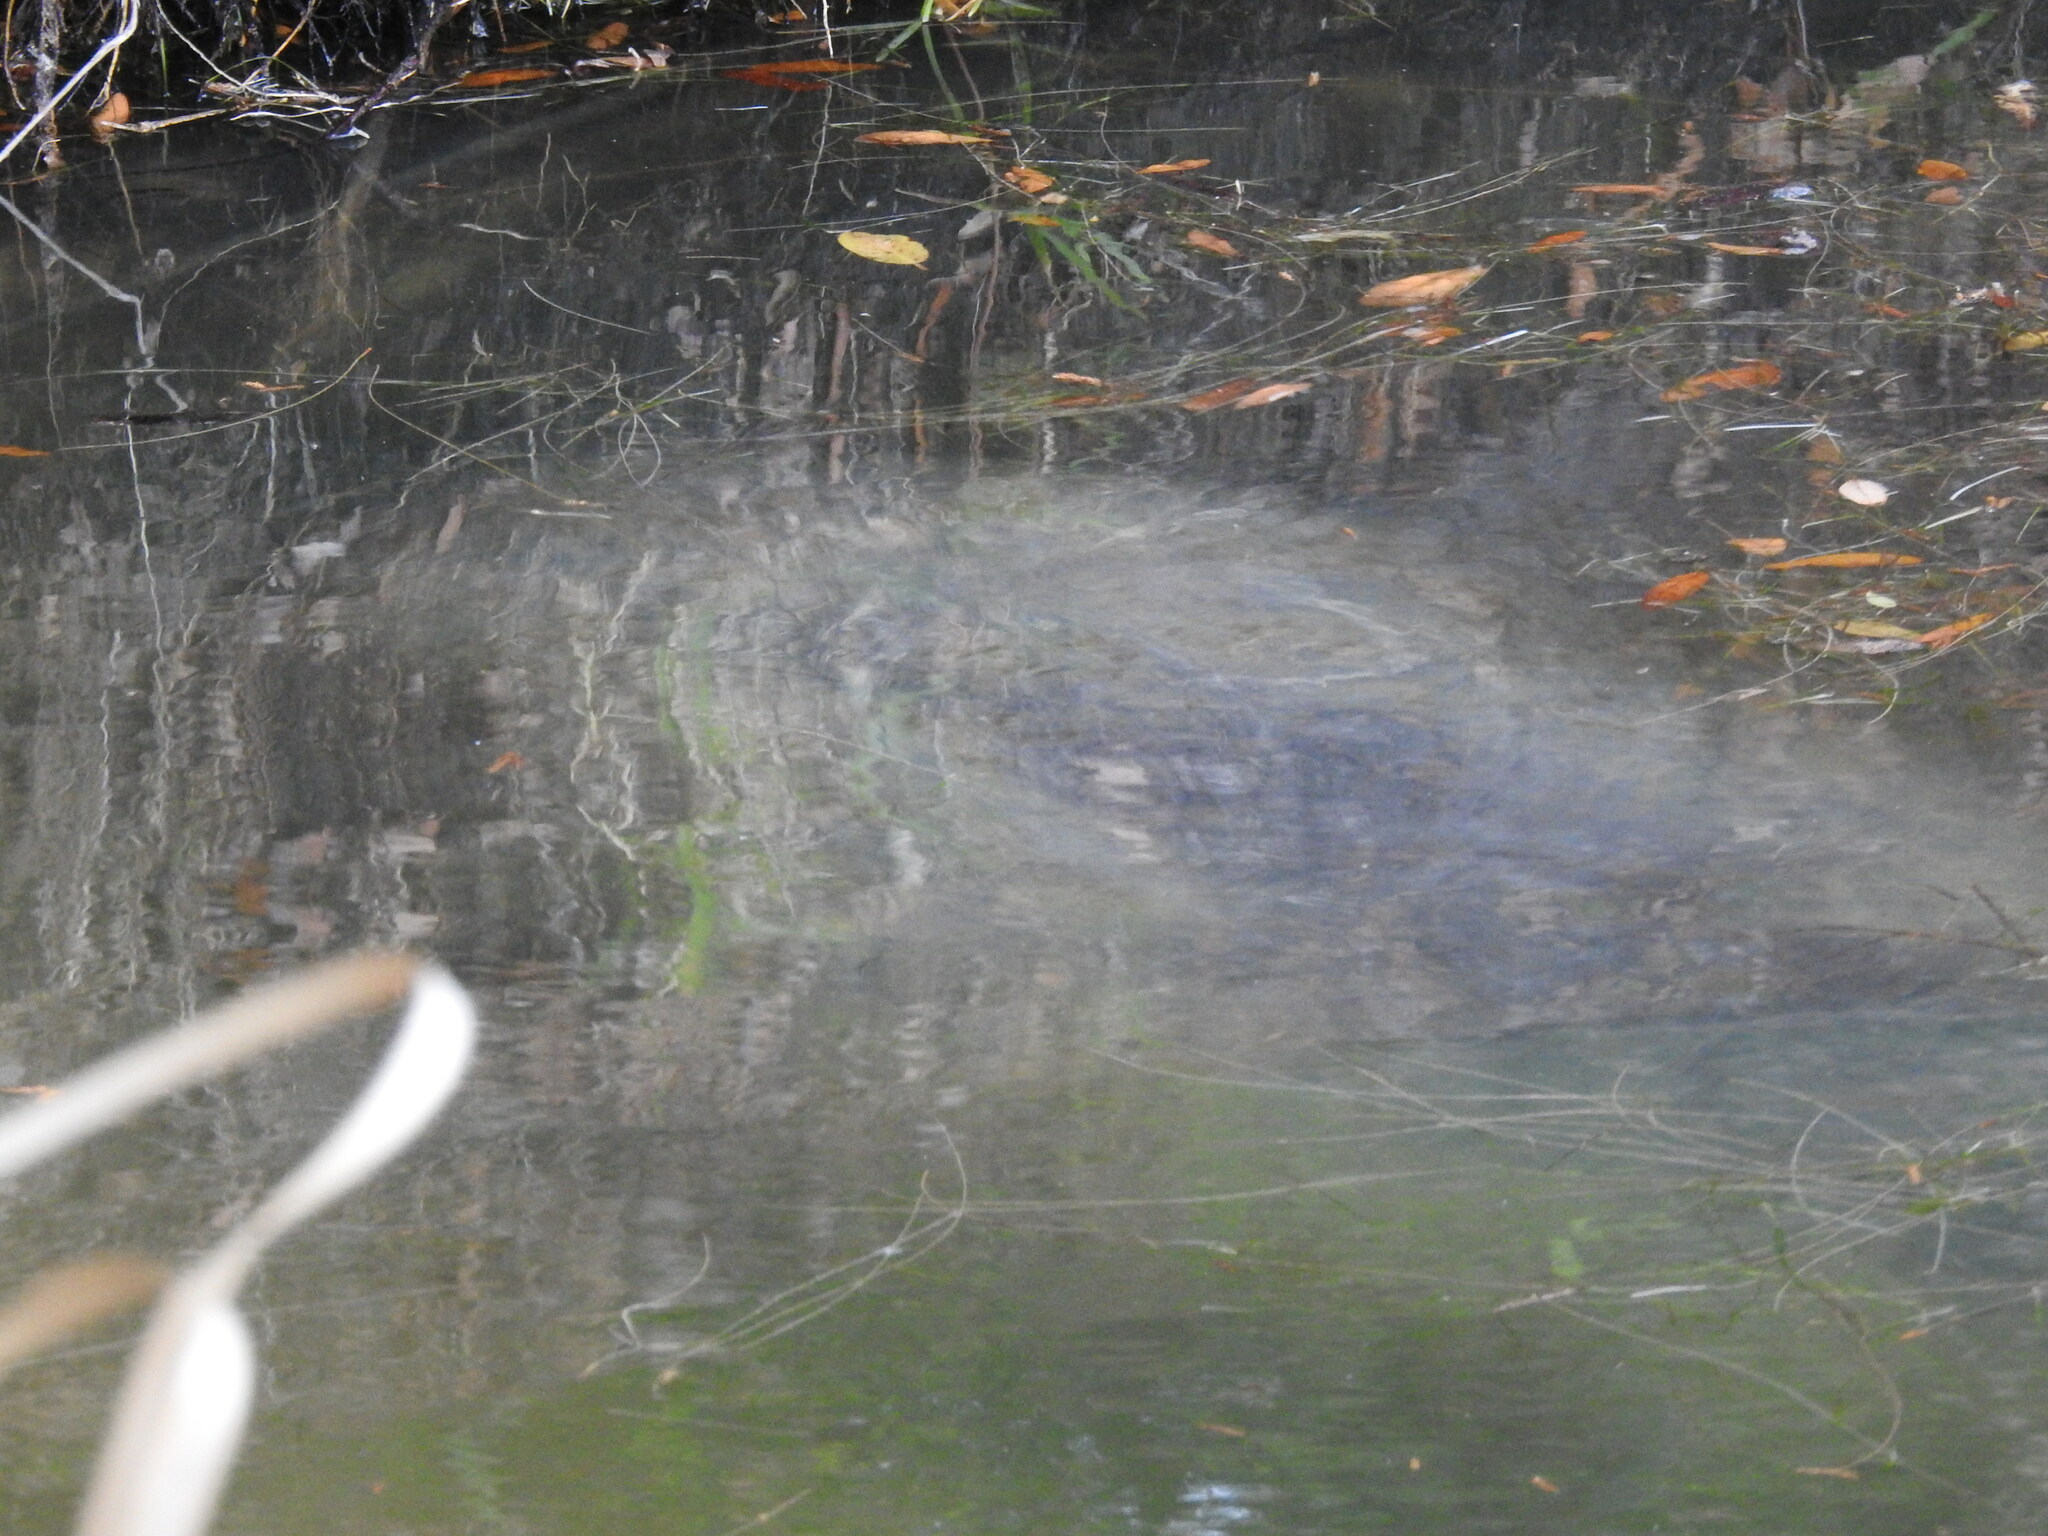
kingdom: Animalia
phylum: Chordata
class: Mammalia
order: Sirenia
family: Trichechidae
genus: Trichechus
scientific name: Trichechus manatus
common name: West indian manatee
